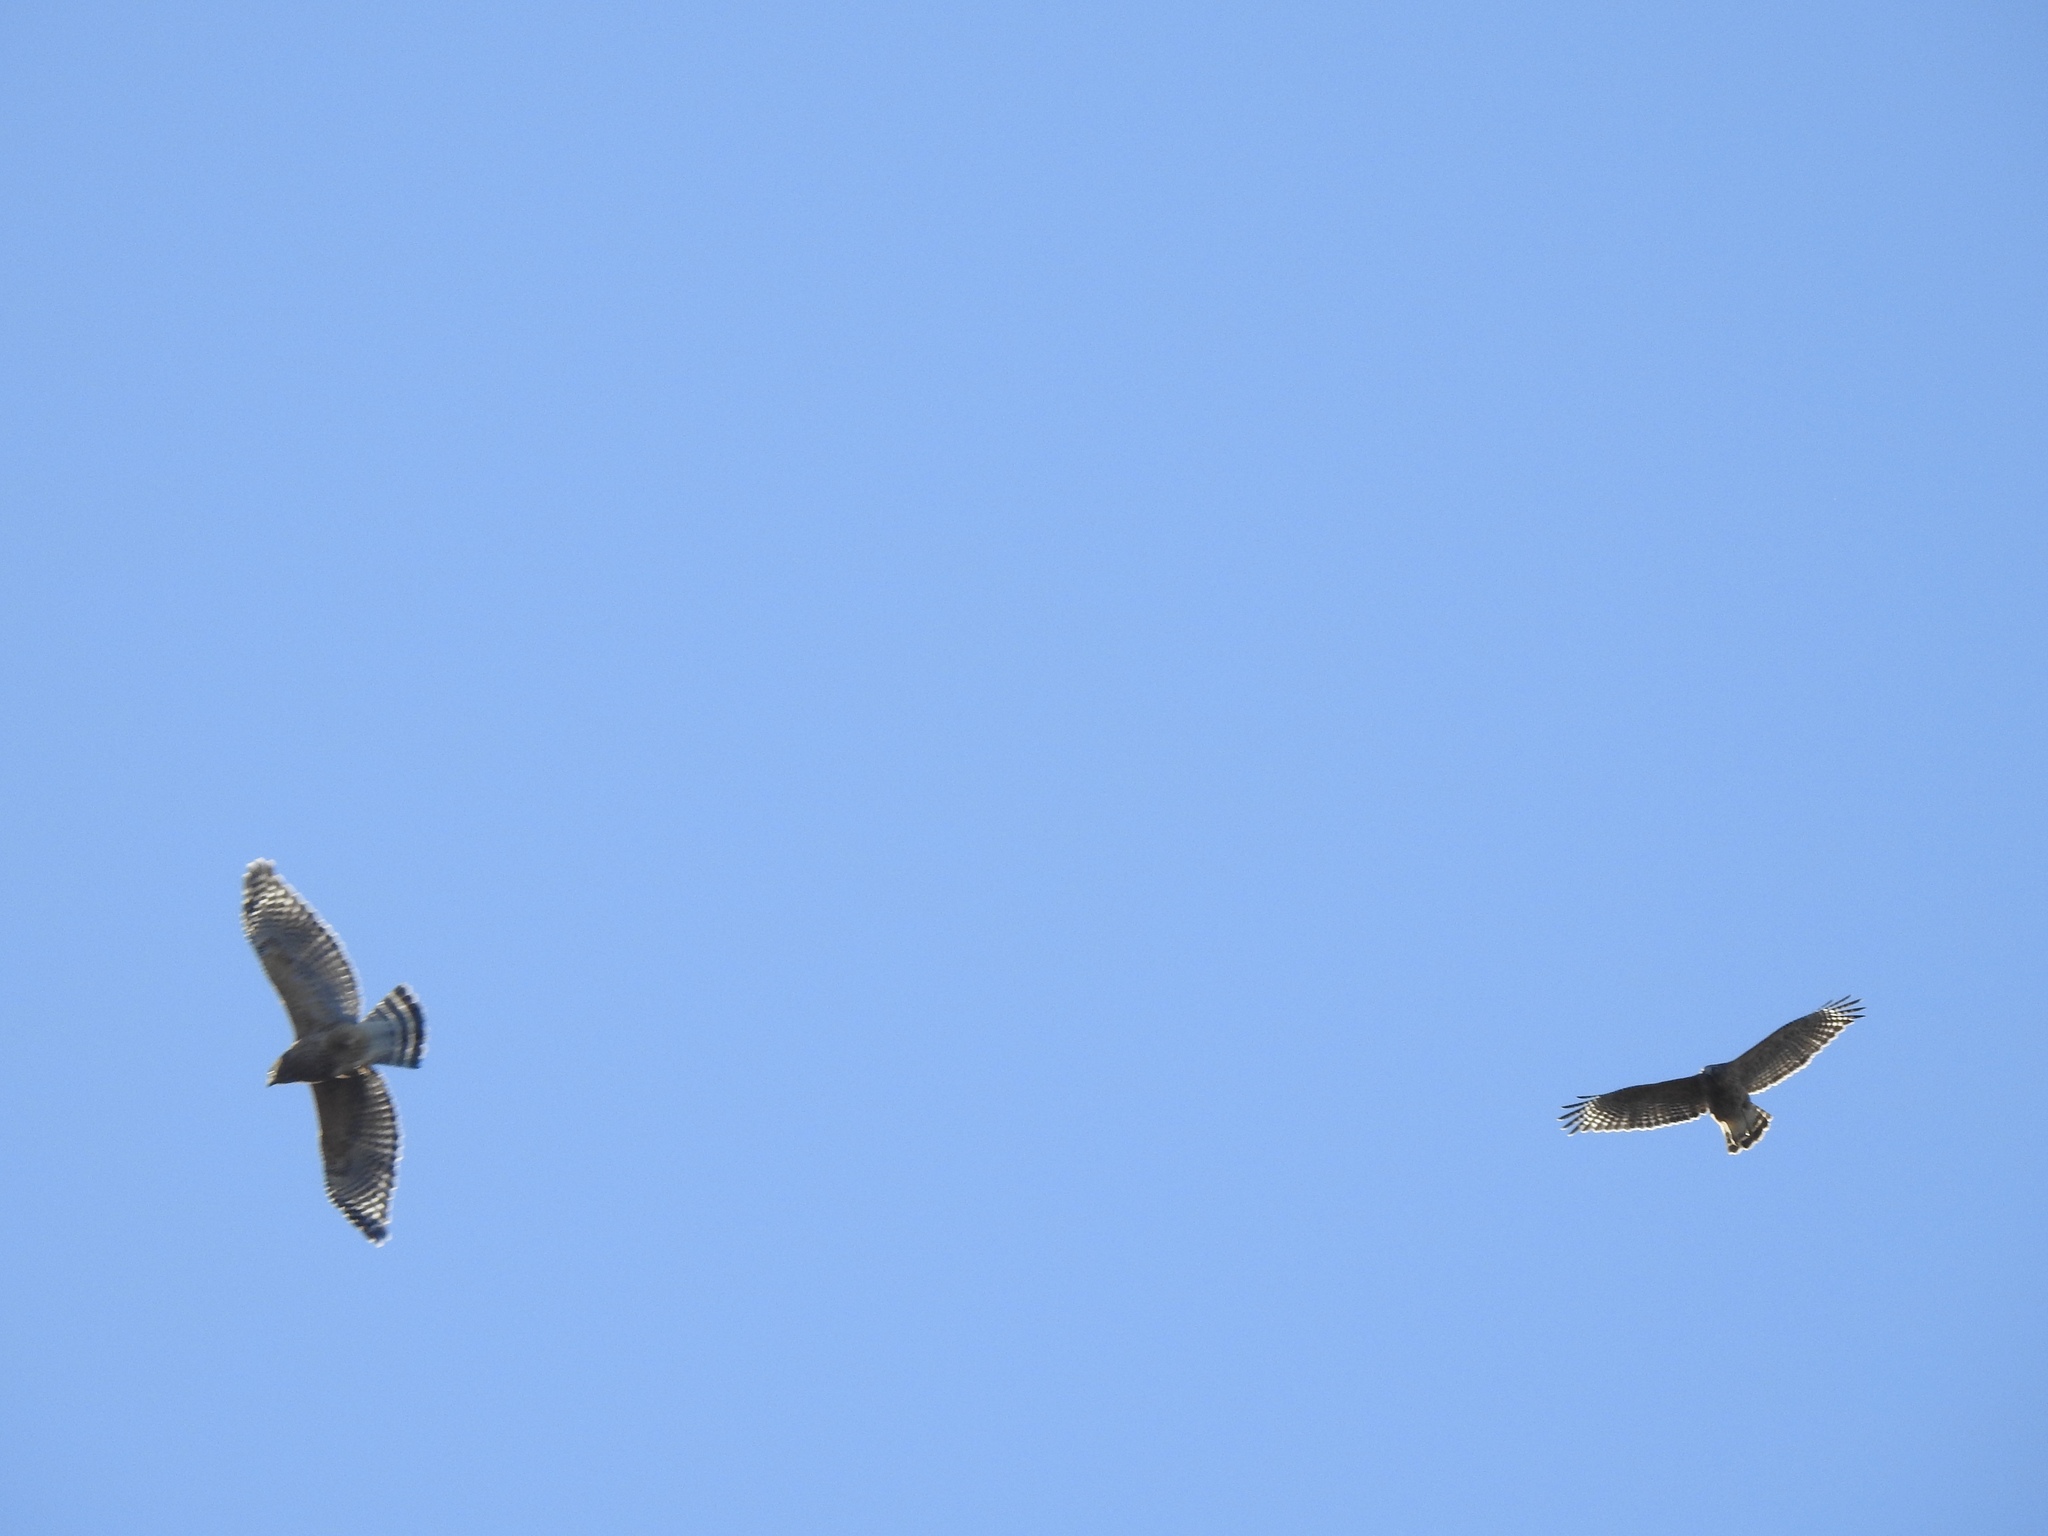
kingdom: Animalia
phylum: Chordata
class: Aves
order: Accipitriformes
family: Accipitridae
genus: Buteo
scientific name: Buteo lineatus
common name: Red-shouldered hawk
